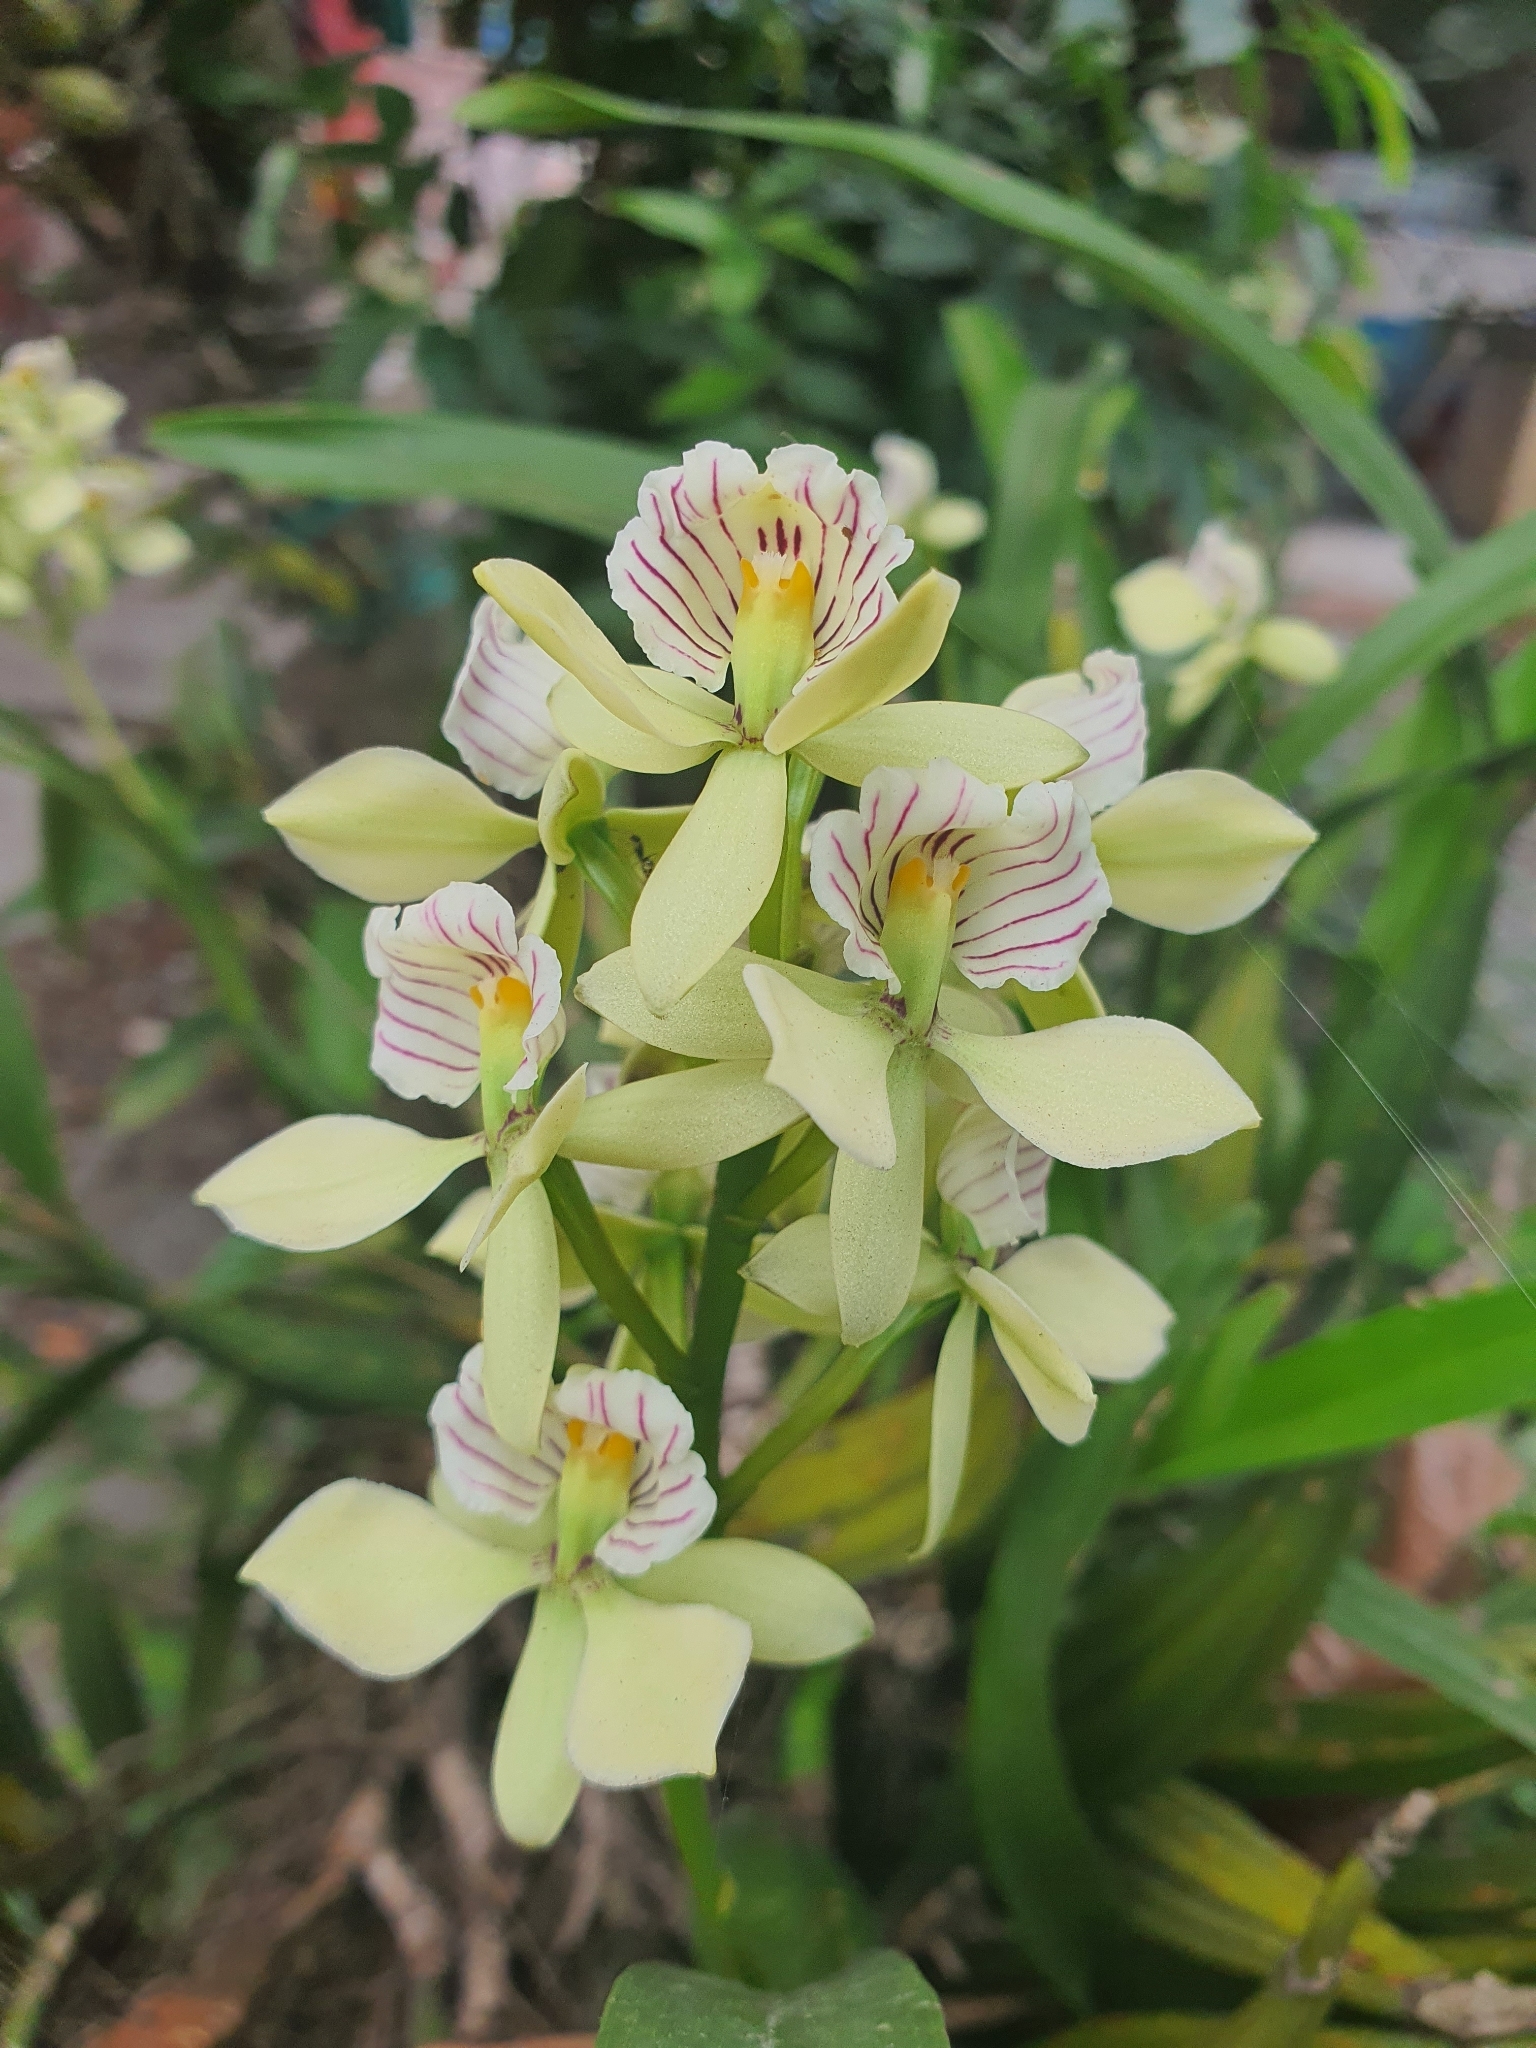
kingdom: Plantae
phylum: Tracheophyta
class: Liliopsida
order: Asparagales
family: Orchidaceae
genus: Prosthechea
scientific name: Prosthechea radiata
